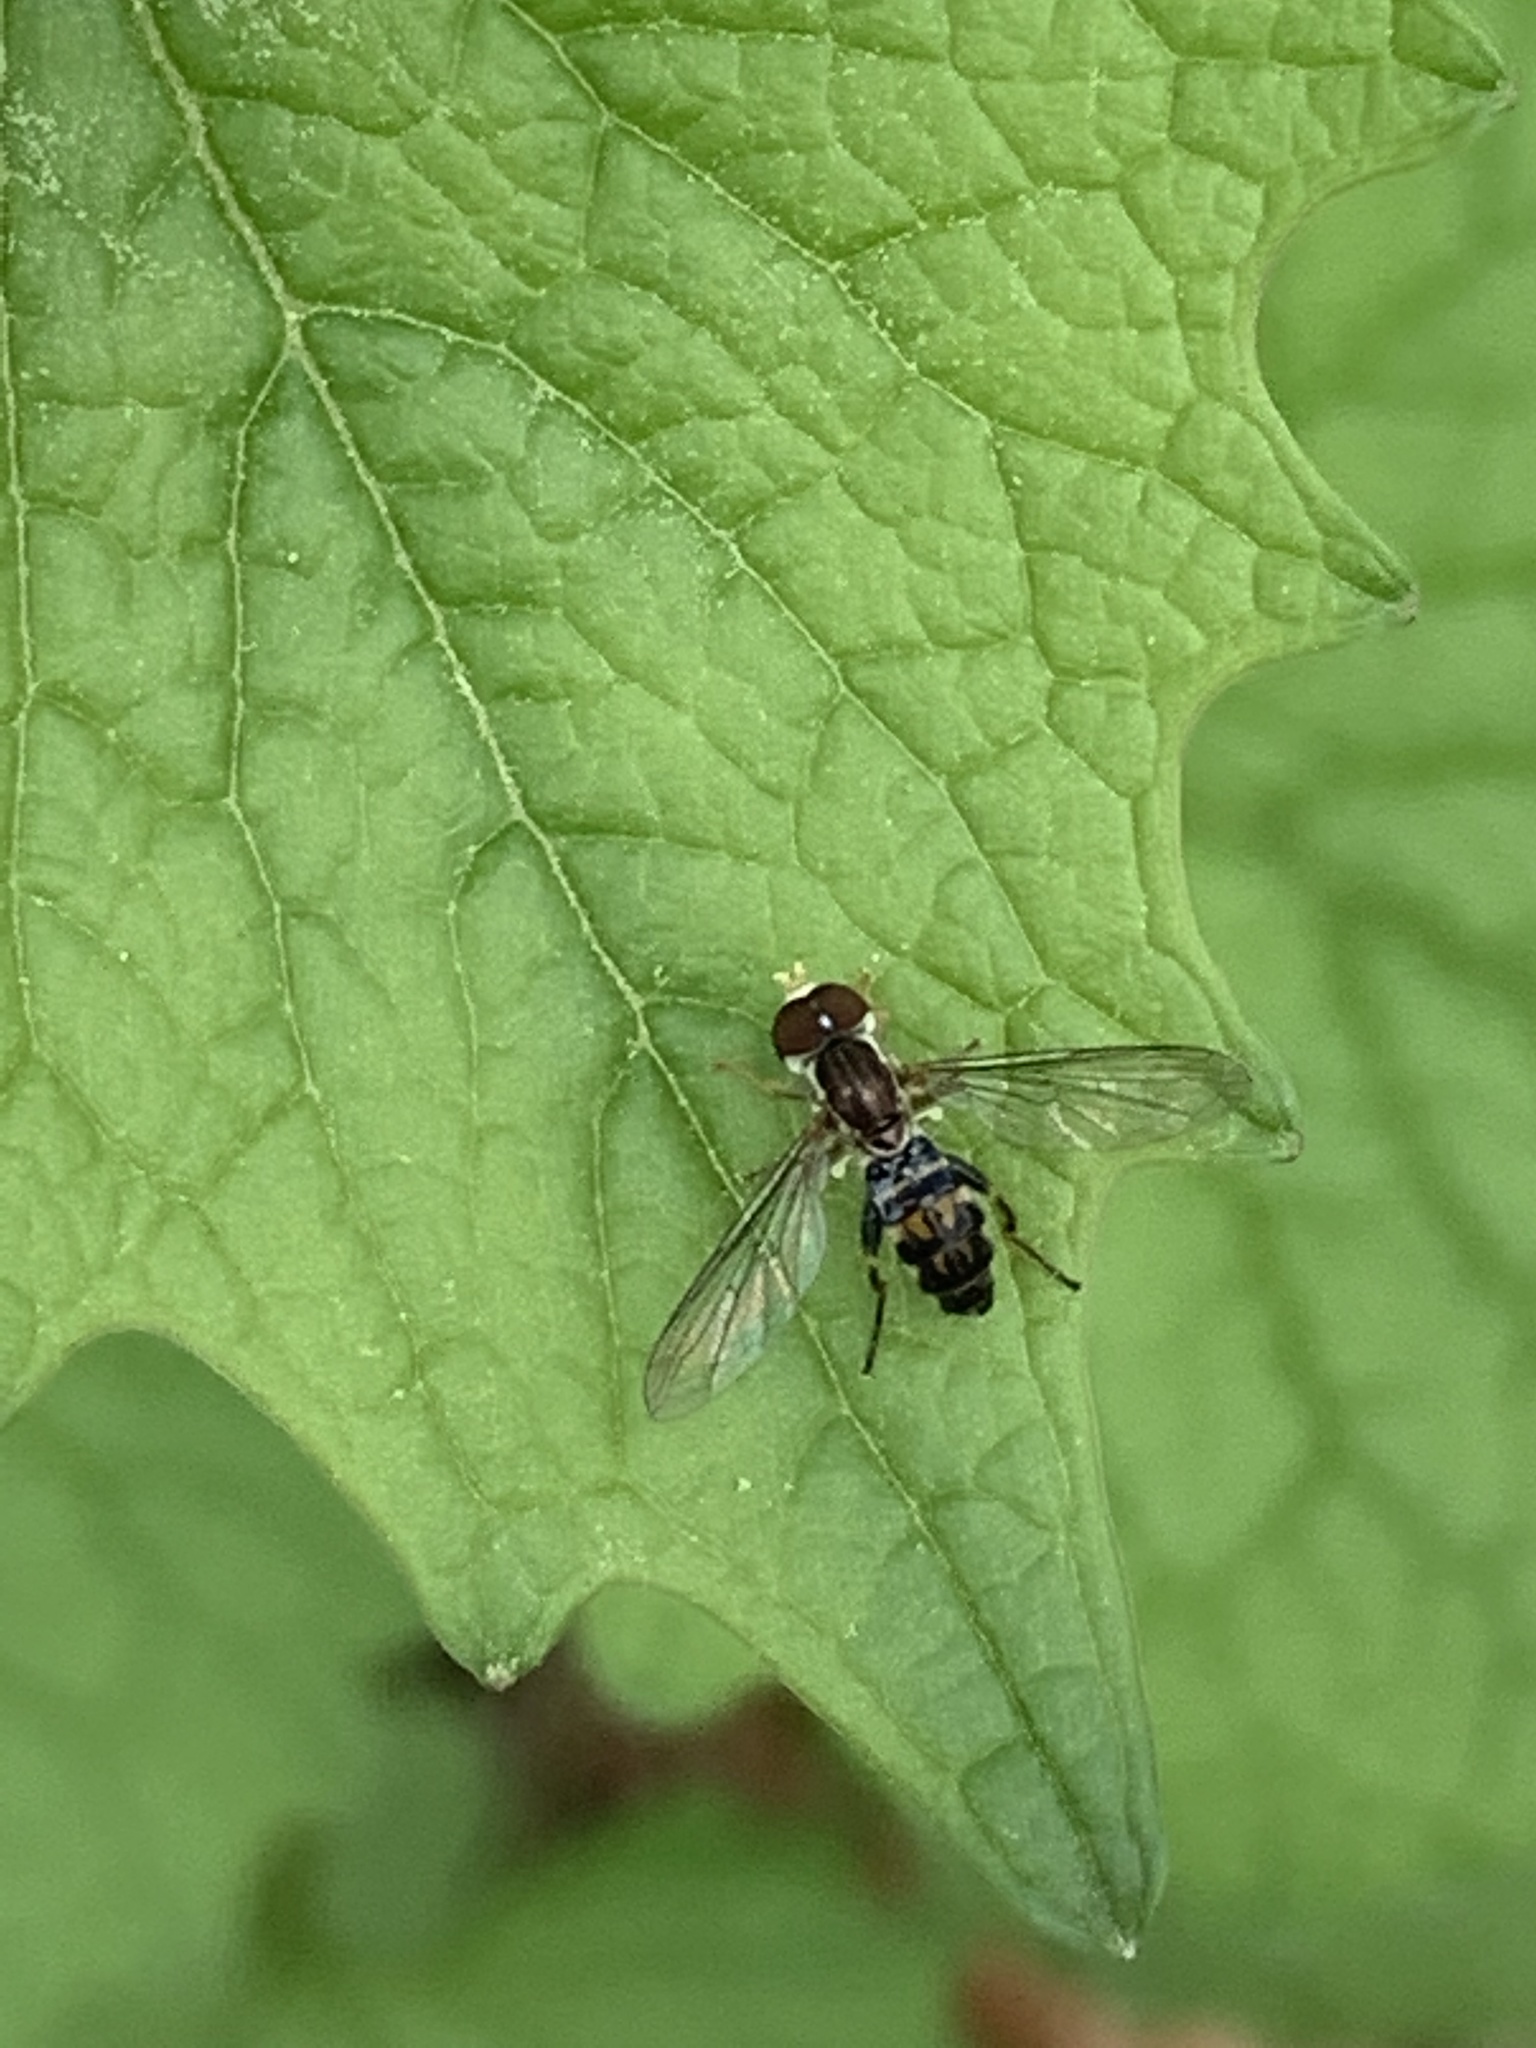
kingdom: Animalia
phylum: Arthropoda
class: Insecta
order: Diptera
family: Syrphidae
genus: Toxomerus
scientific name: Toxomerus geminatus
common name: Eastern calligrapher
